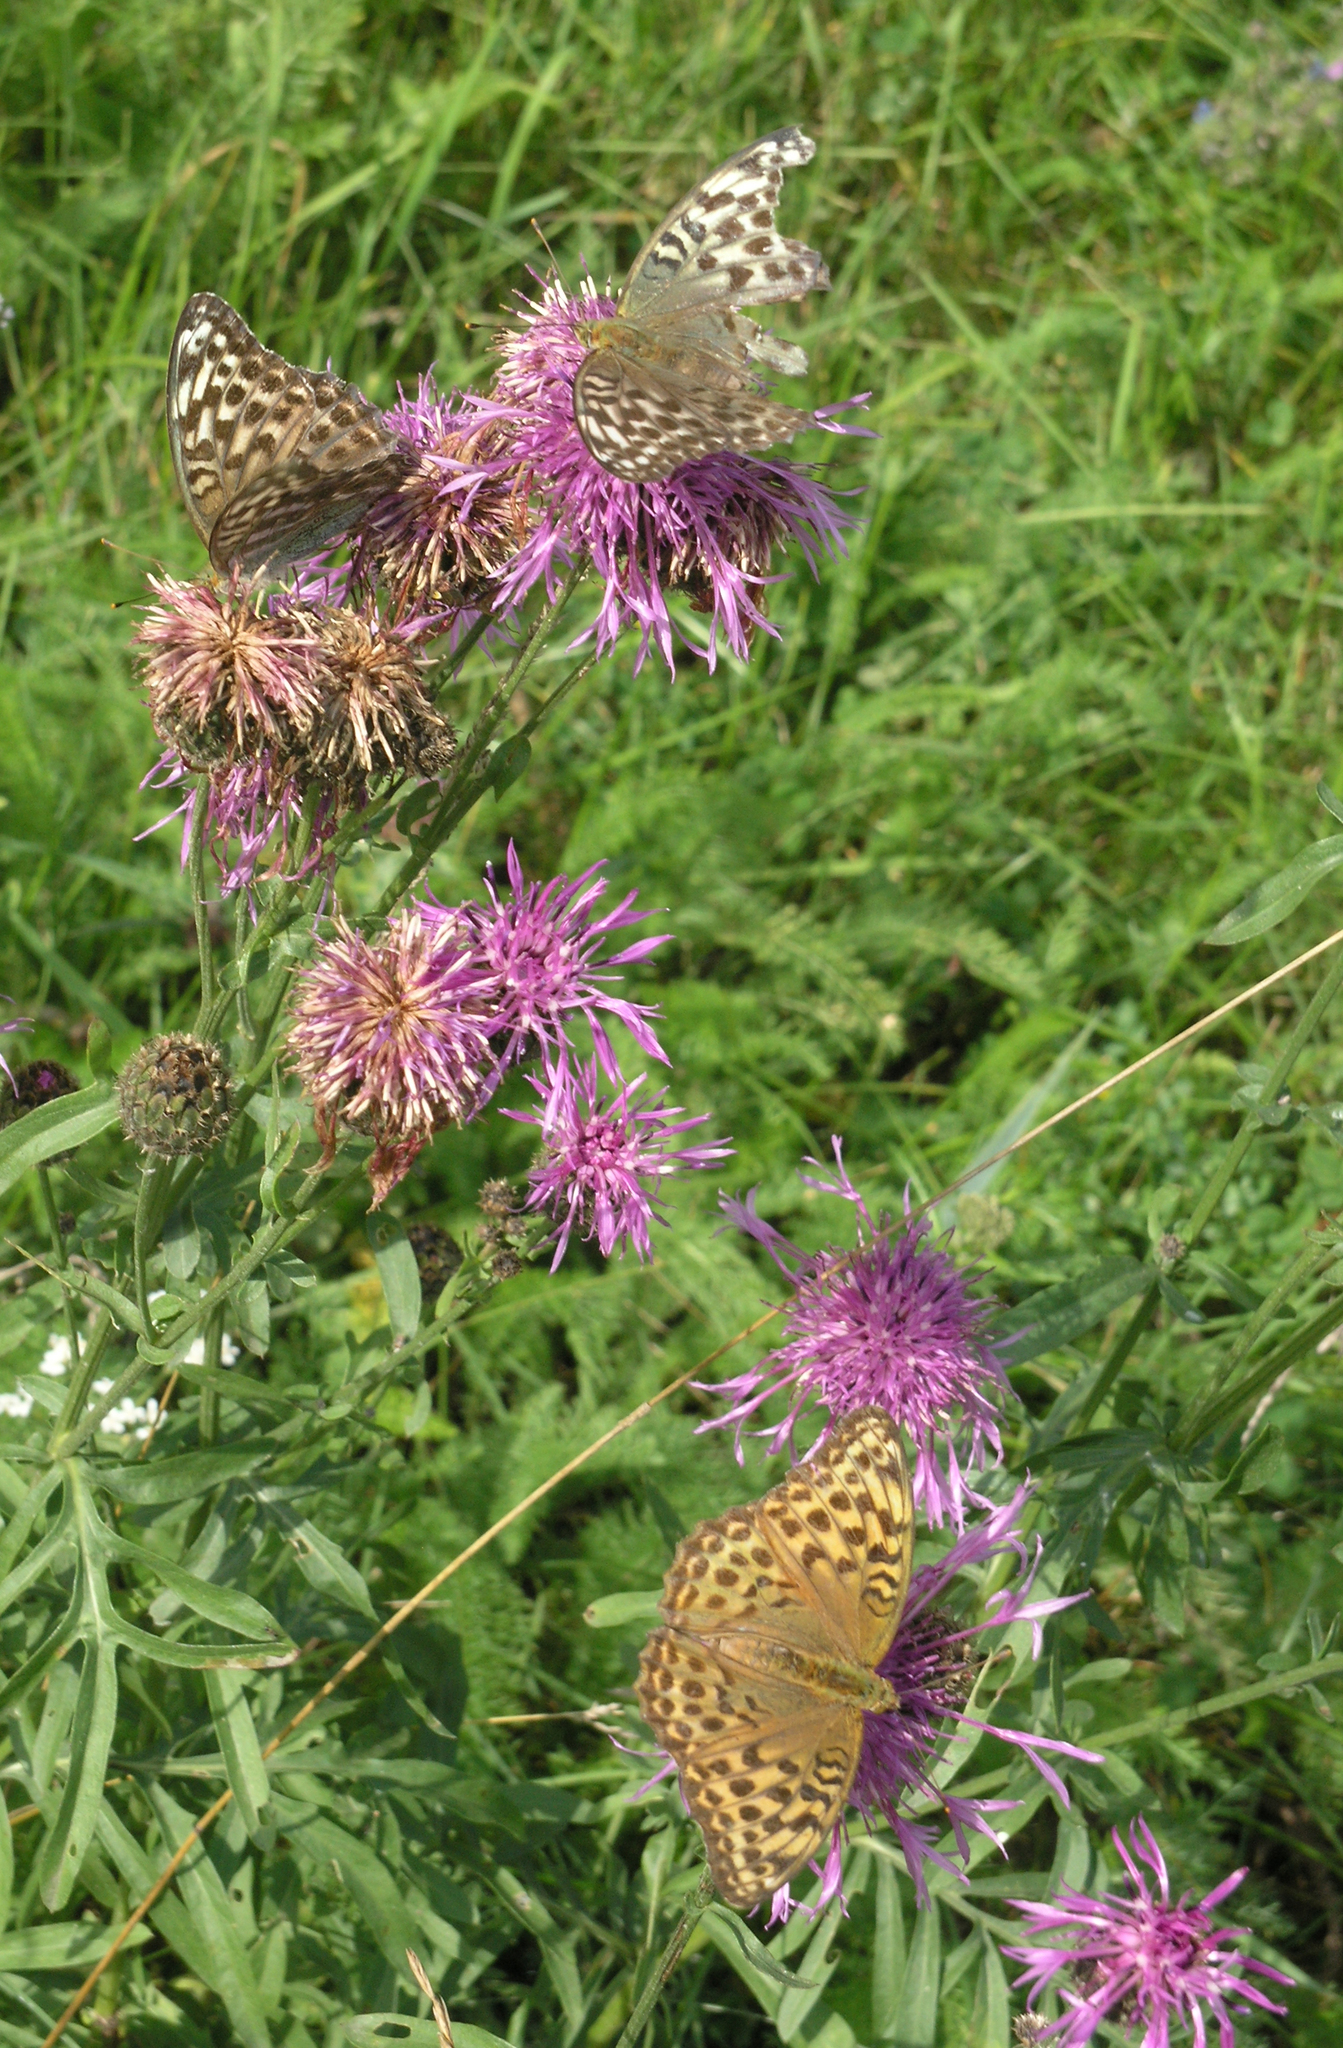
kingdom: Plantae
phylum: Tracheophyta
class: Magnoliopsida
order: Asterales
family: Asteraceae
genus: Centaurea
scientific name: Centaurea scabiosa
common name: Greater knapweed
